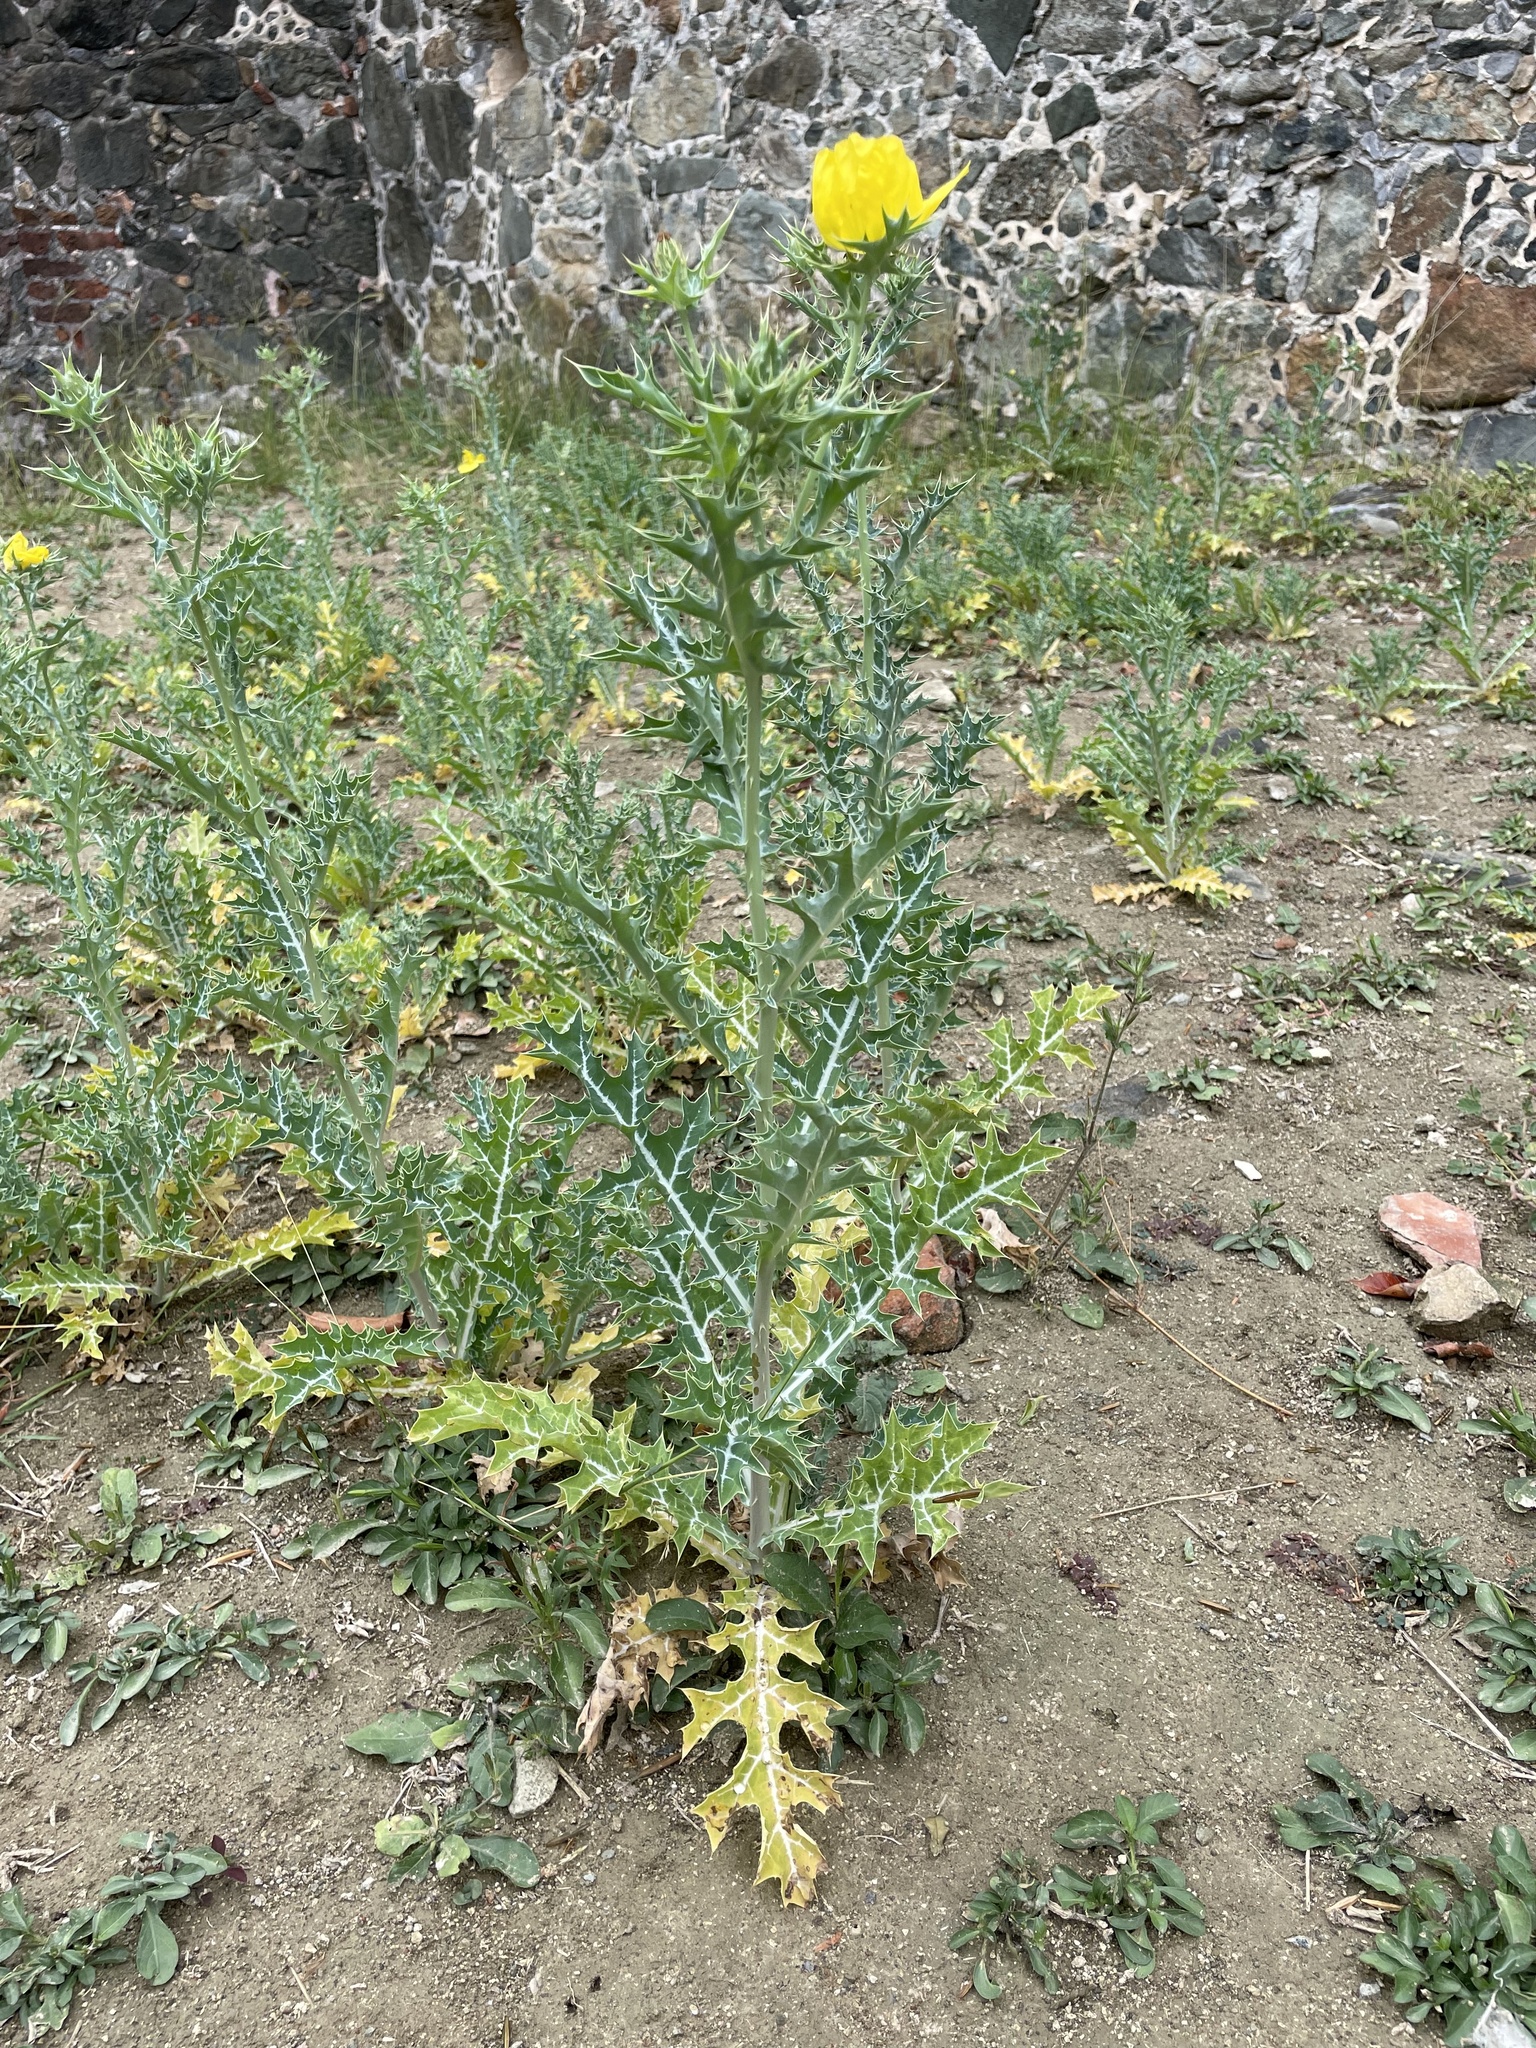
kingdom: Plantae
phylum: Tracheophyta
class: Magnoliopsida
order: Ranunculales
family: Papaveraceae
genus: Argemone
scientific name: Argemone mexicana
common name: Mexican poppy
